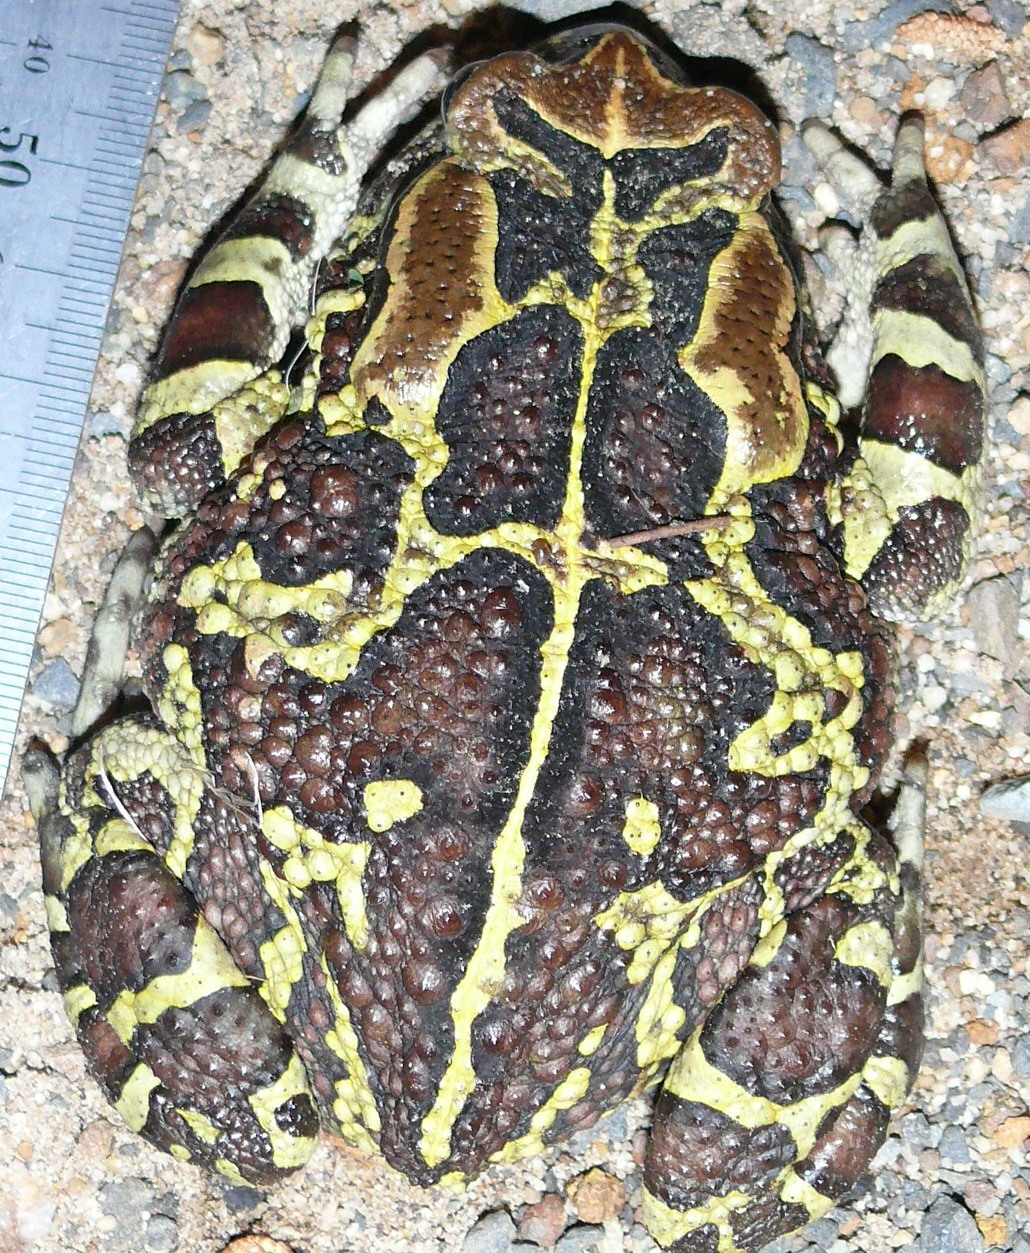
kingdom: Animalia
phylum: Chordata
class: Amphibia
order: Anura
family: Bufonidae
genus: Sclerophrys
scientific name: Sclerophrys pantherina
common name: Panther toad
